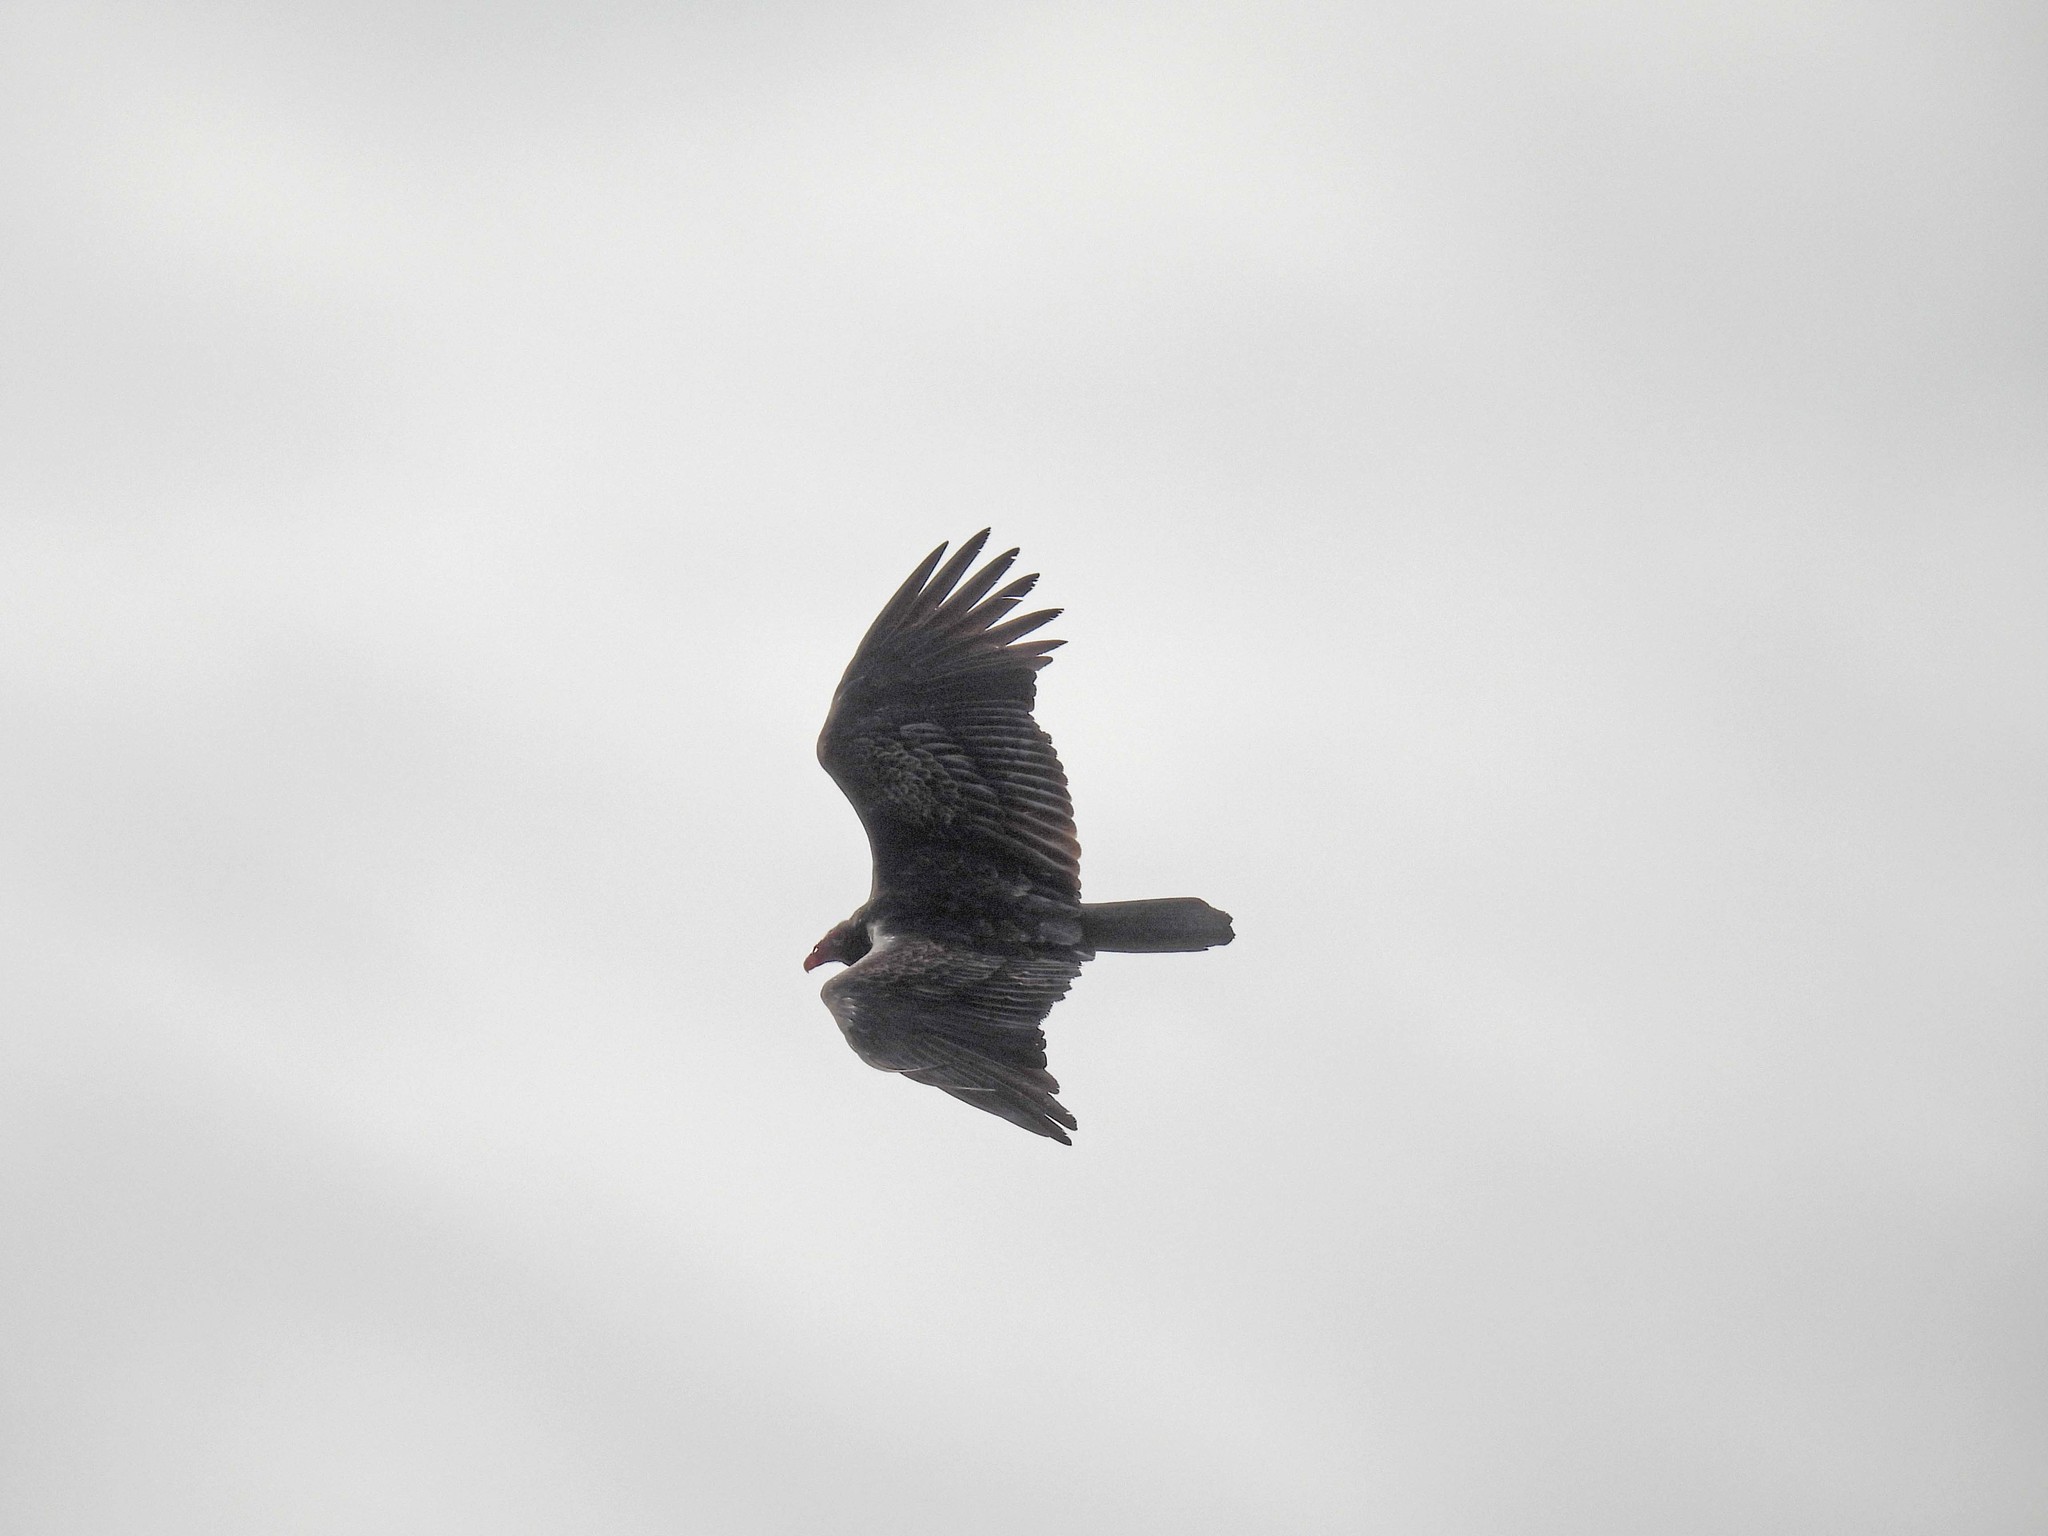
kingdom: Animalia
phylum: Chordata
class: Aves
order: Accipitriformes
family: Cathartidae
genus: Cathartes
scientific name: Cathartes aura
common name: Turkey vulture
